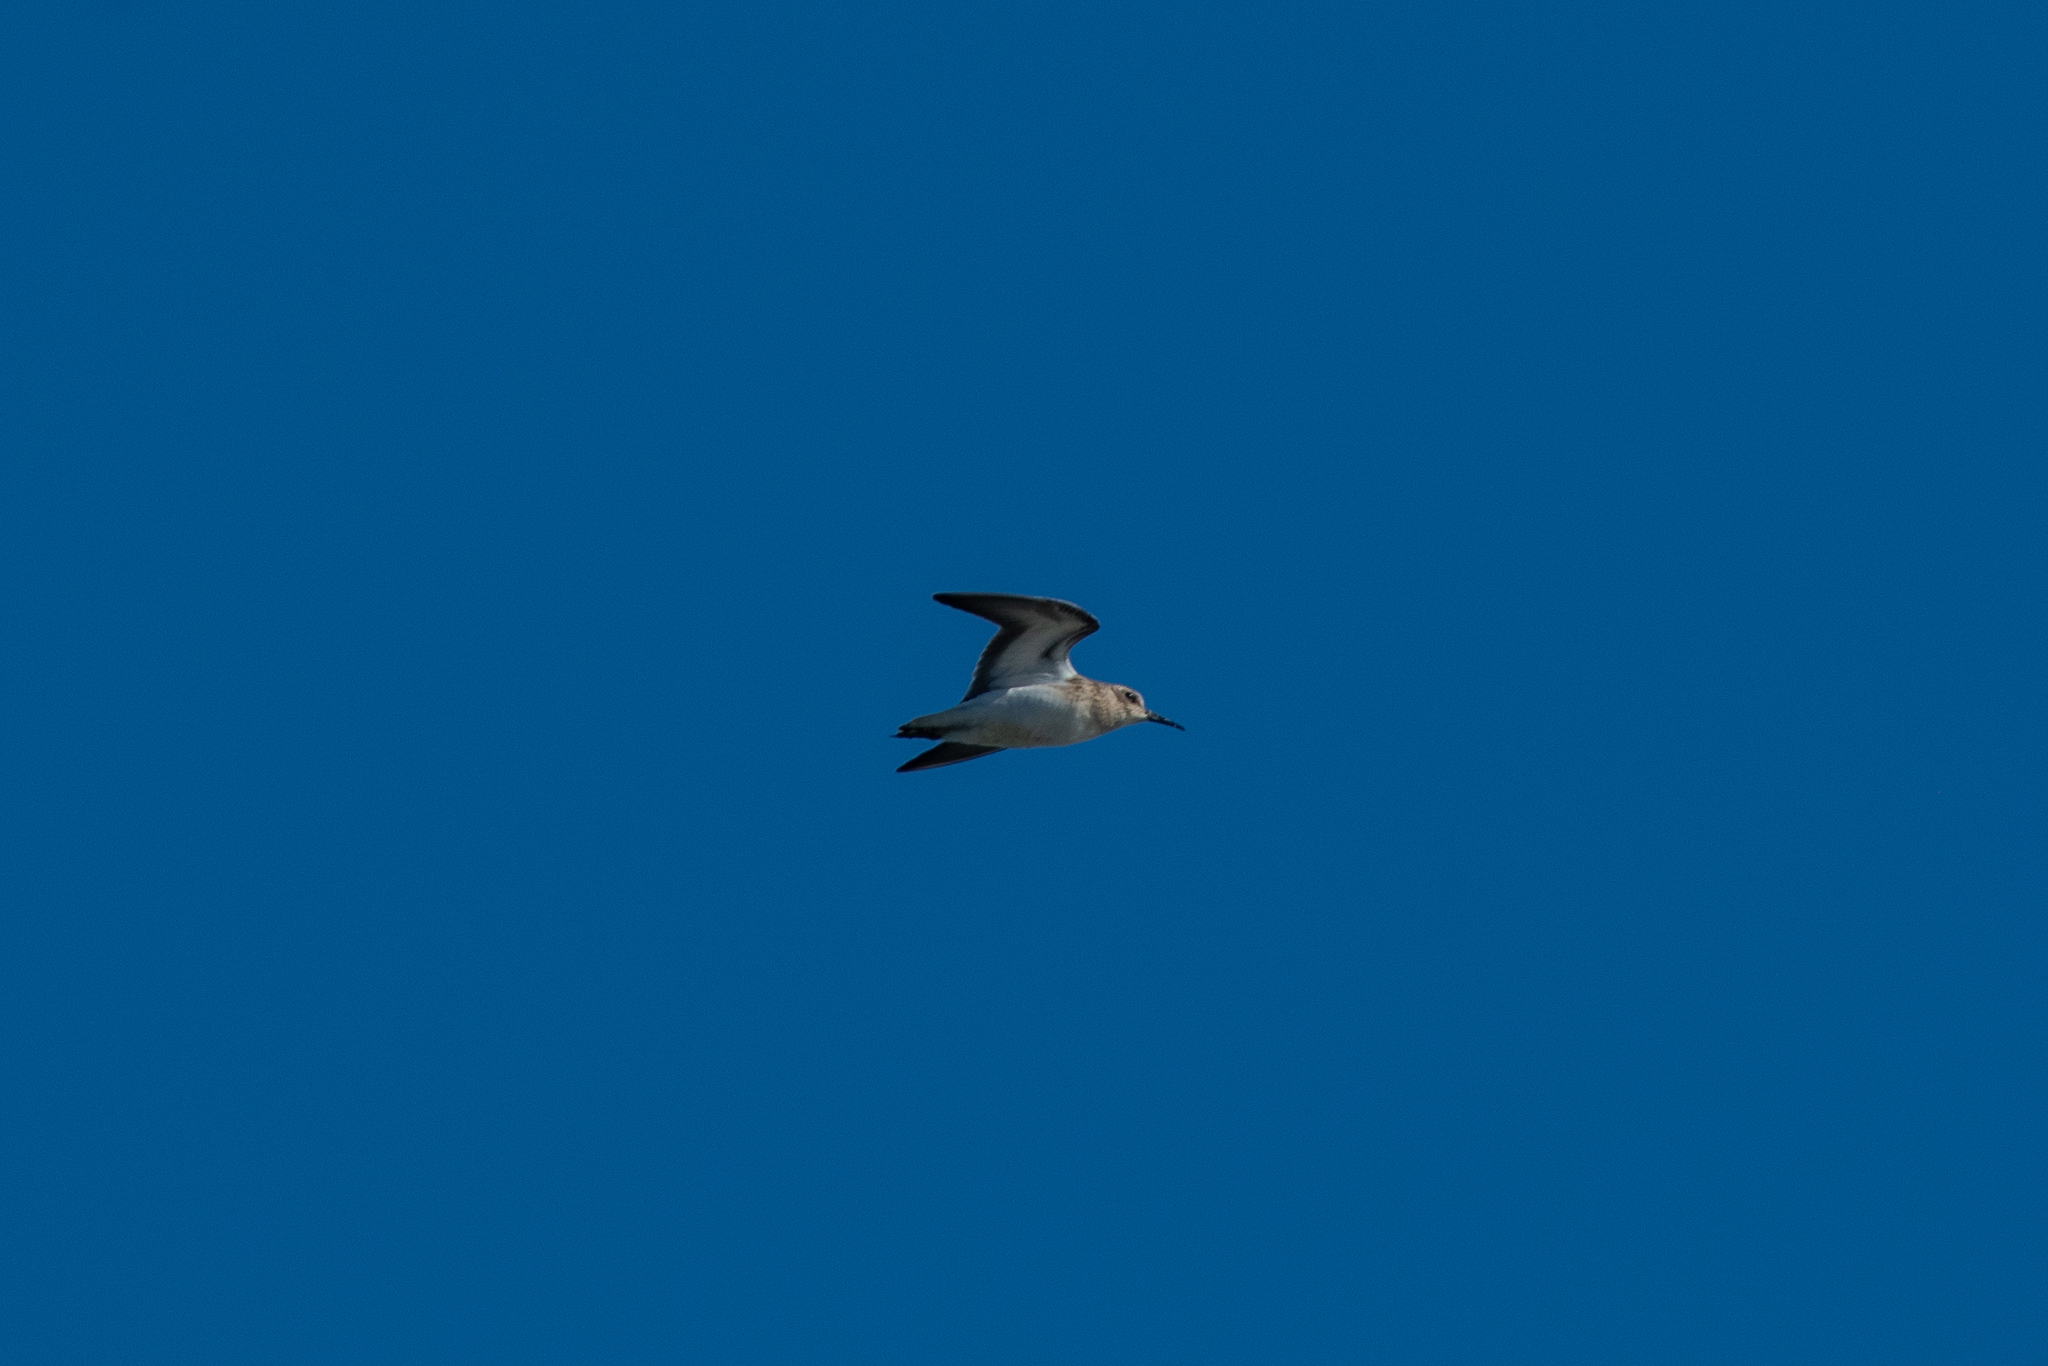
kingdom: Animalia
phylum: Chordata
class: Aves
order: Charadriiformes
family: Scolopacidae
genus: Calidris
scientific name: Calidris minutilla
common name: Least sandpiper
